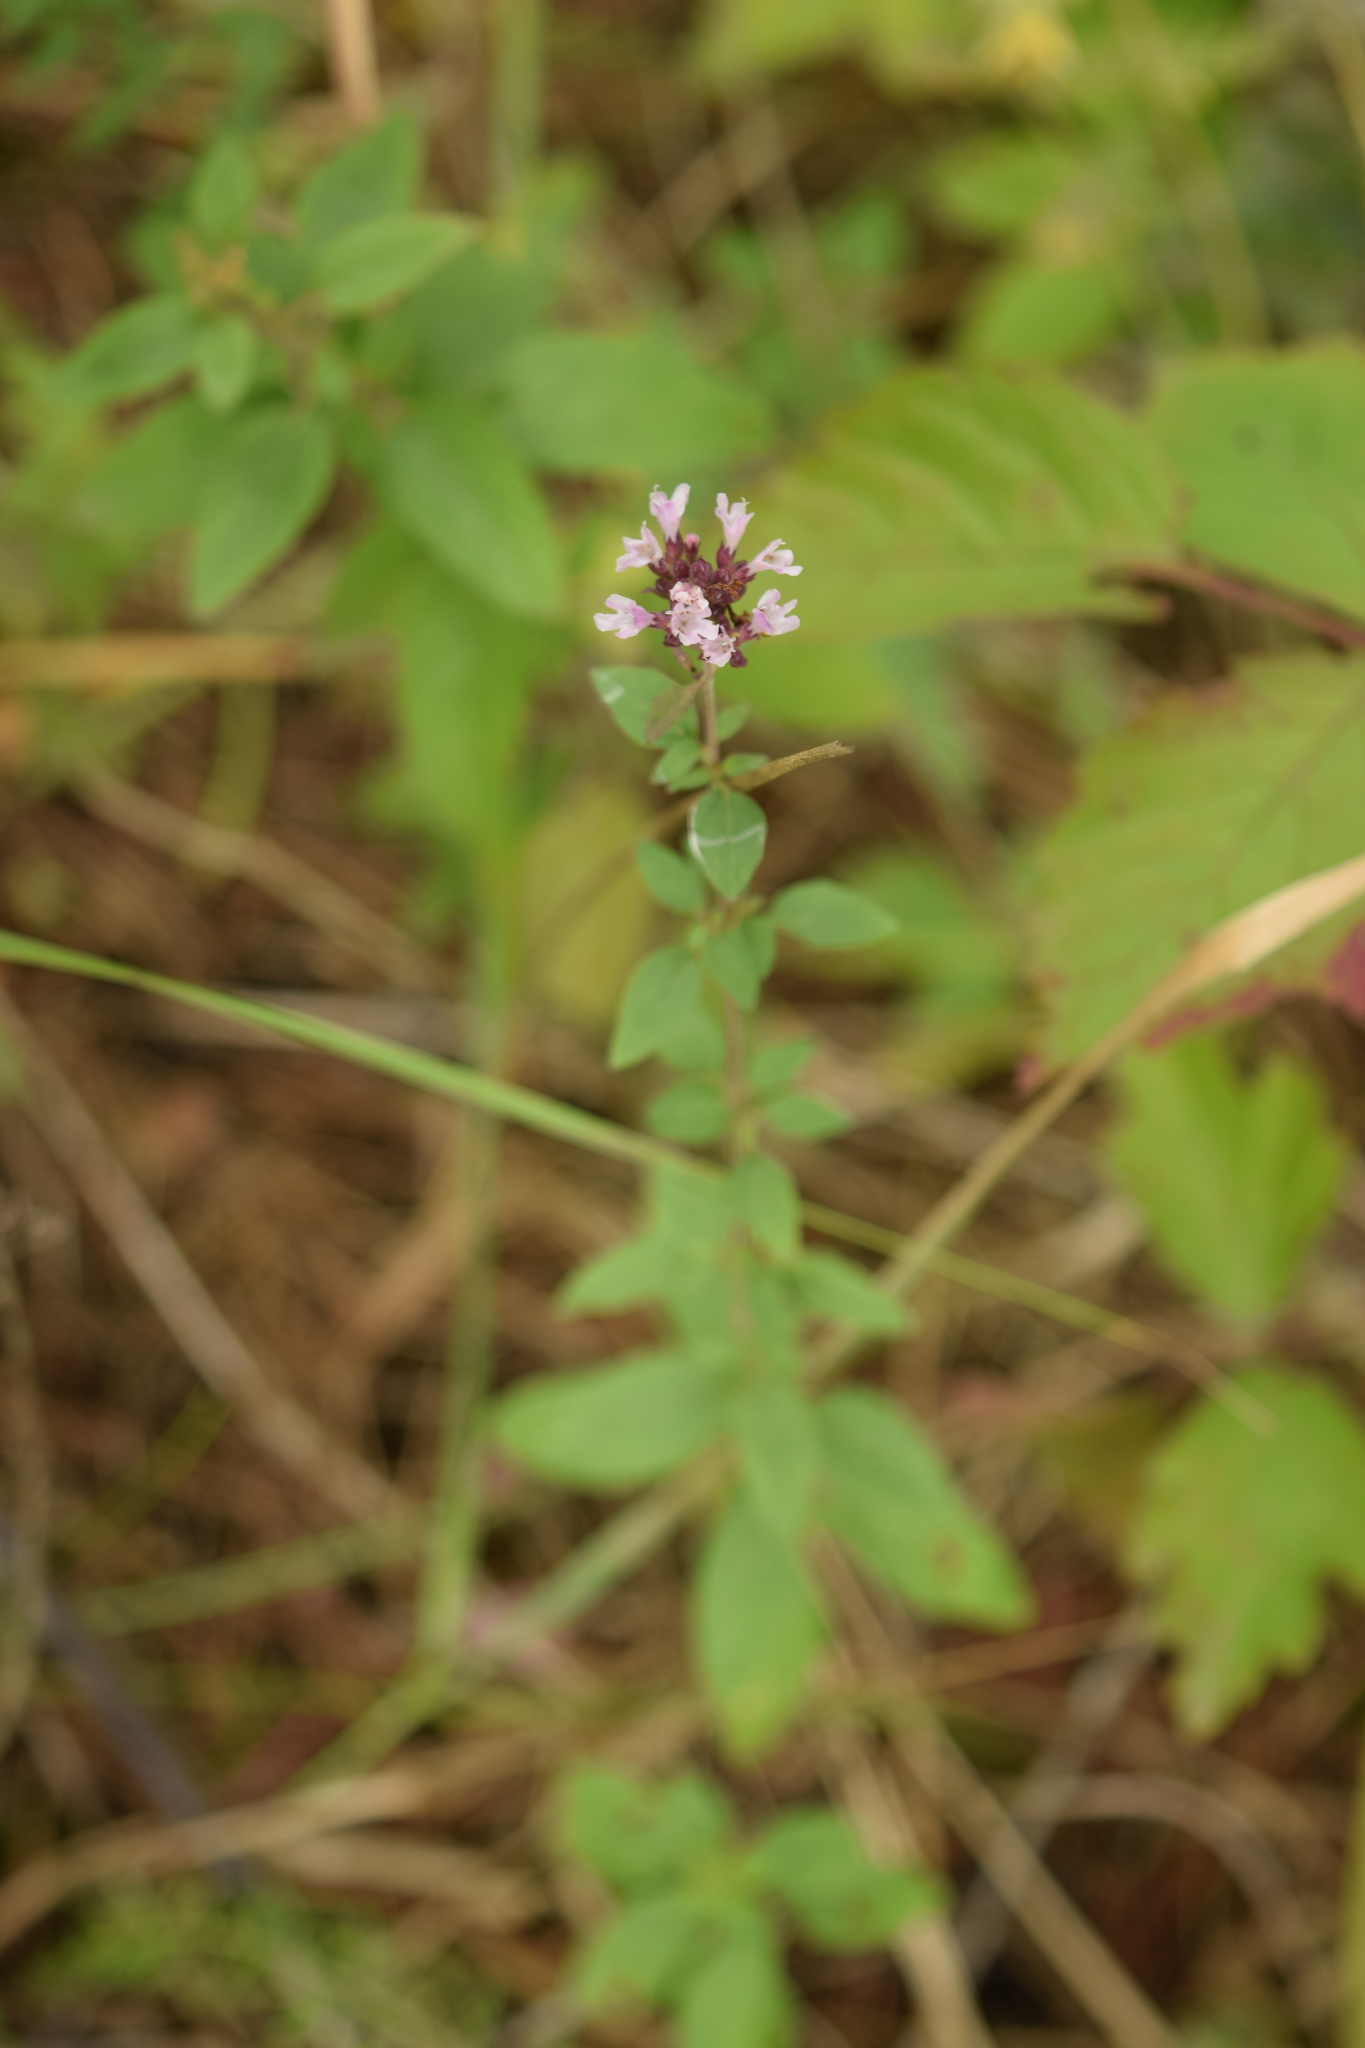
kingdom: Plantae
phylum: Tracheophyta
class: Magnoliopsida
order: Lamiales
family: Lamiaceae
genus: Origanum
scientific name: Origanum vulgare
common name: Wild marjoram
